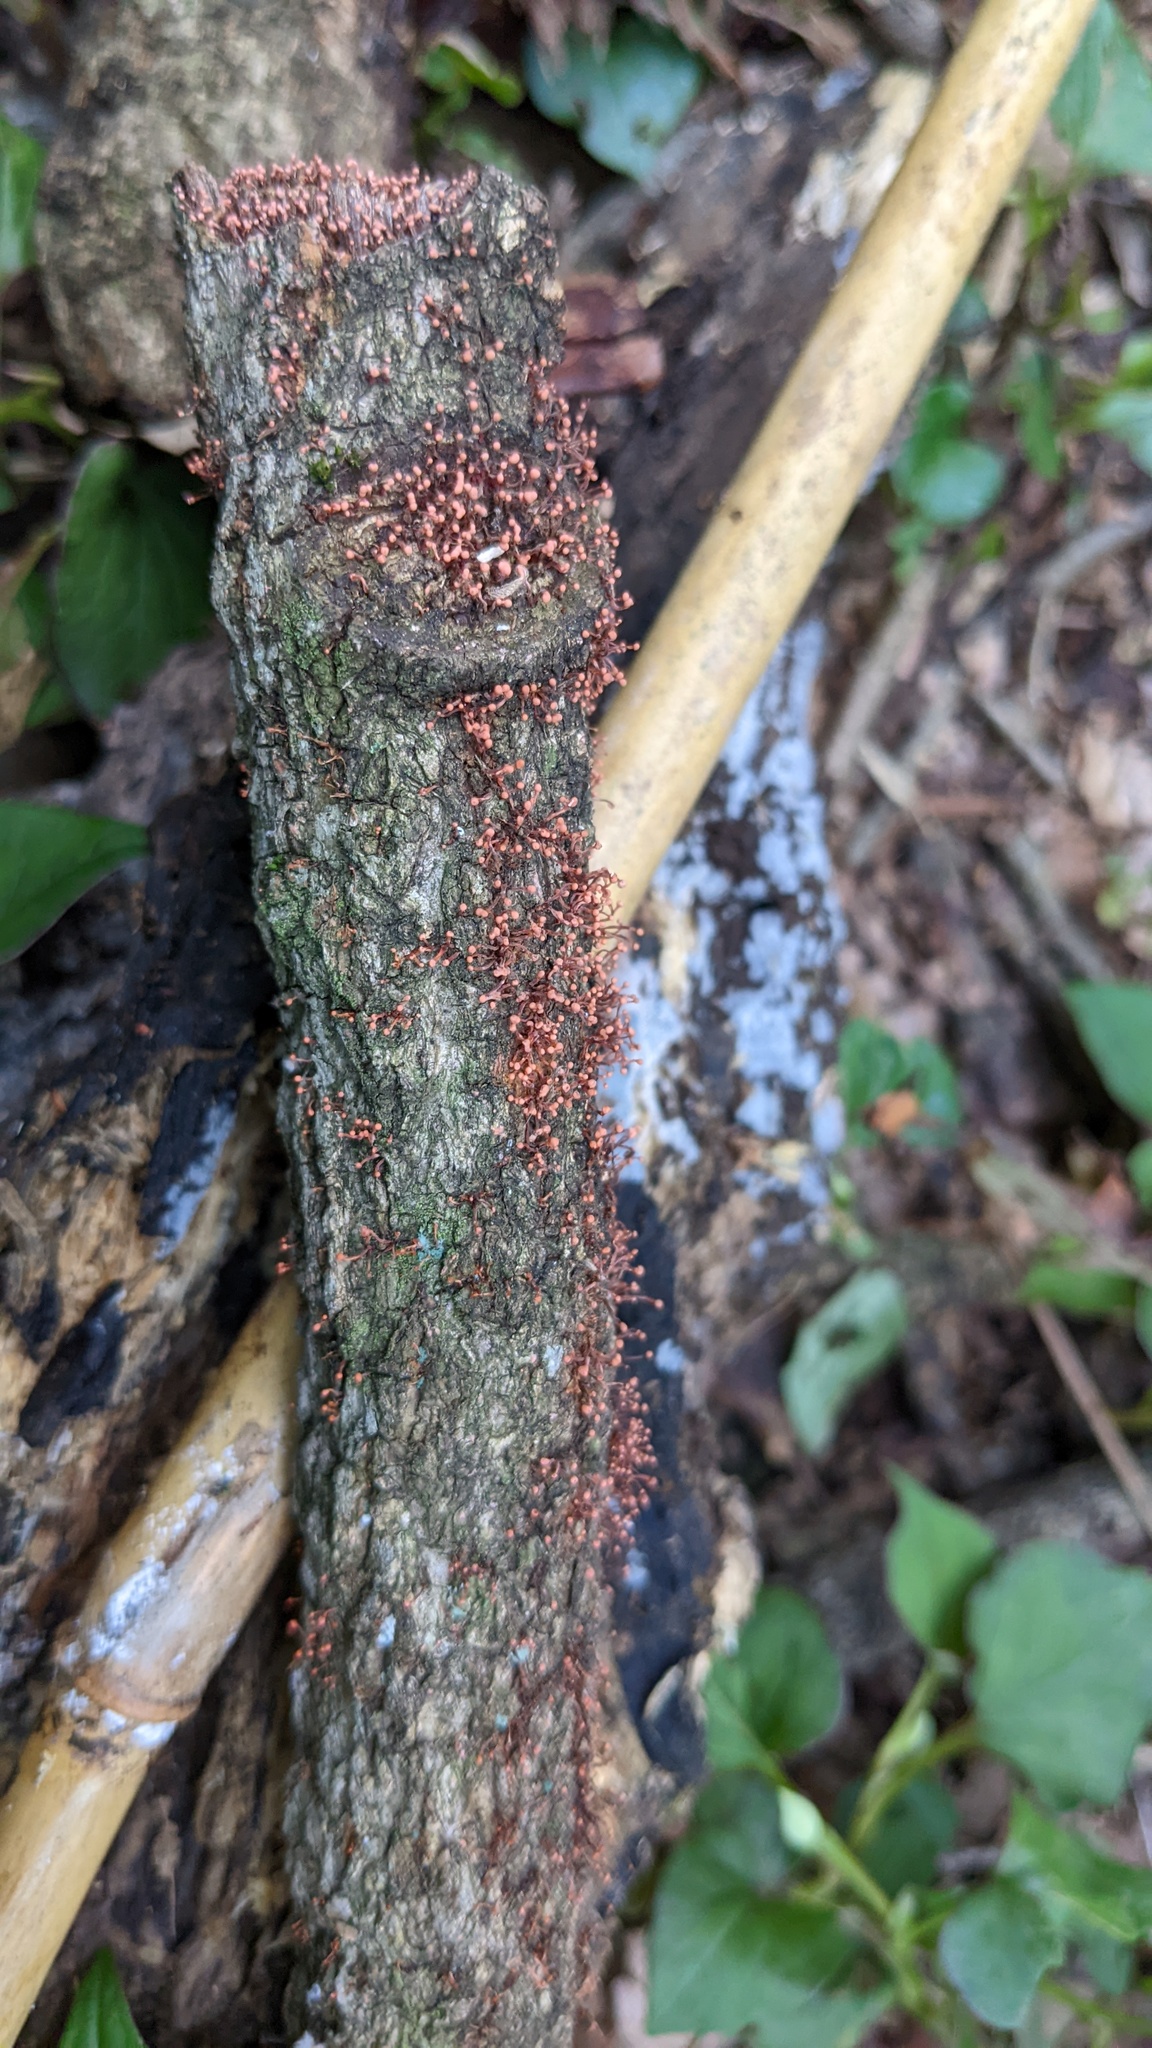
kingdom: Fungi
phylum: Ascomycota
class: Sordariomycetes
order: Hypocreales
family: Nectriaceae
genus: Nectria
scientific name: Nectria pseudotrichia
